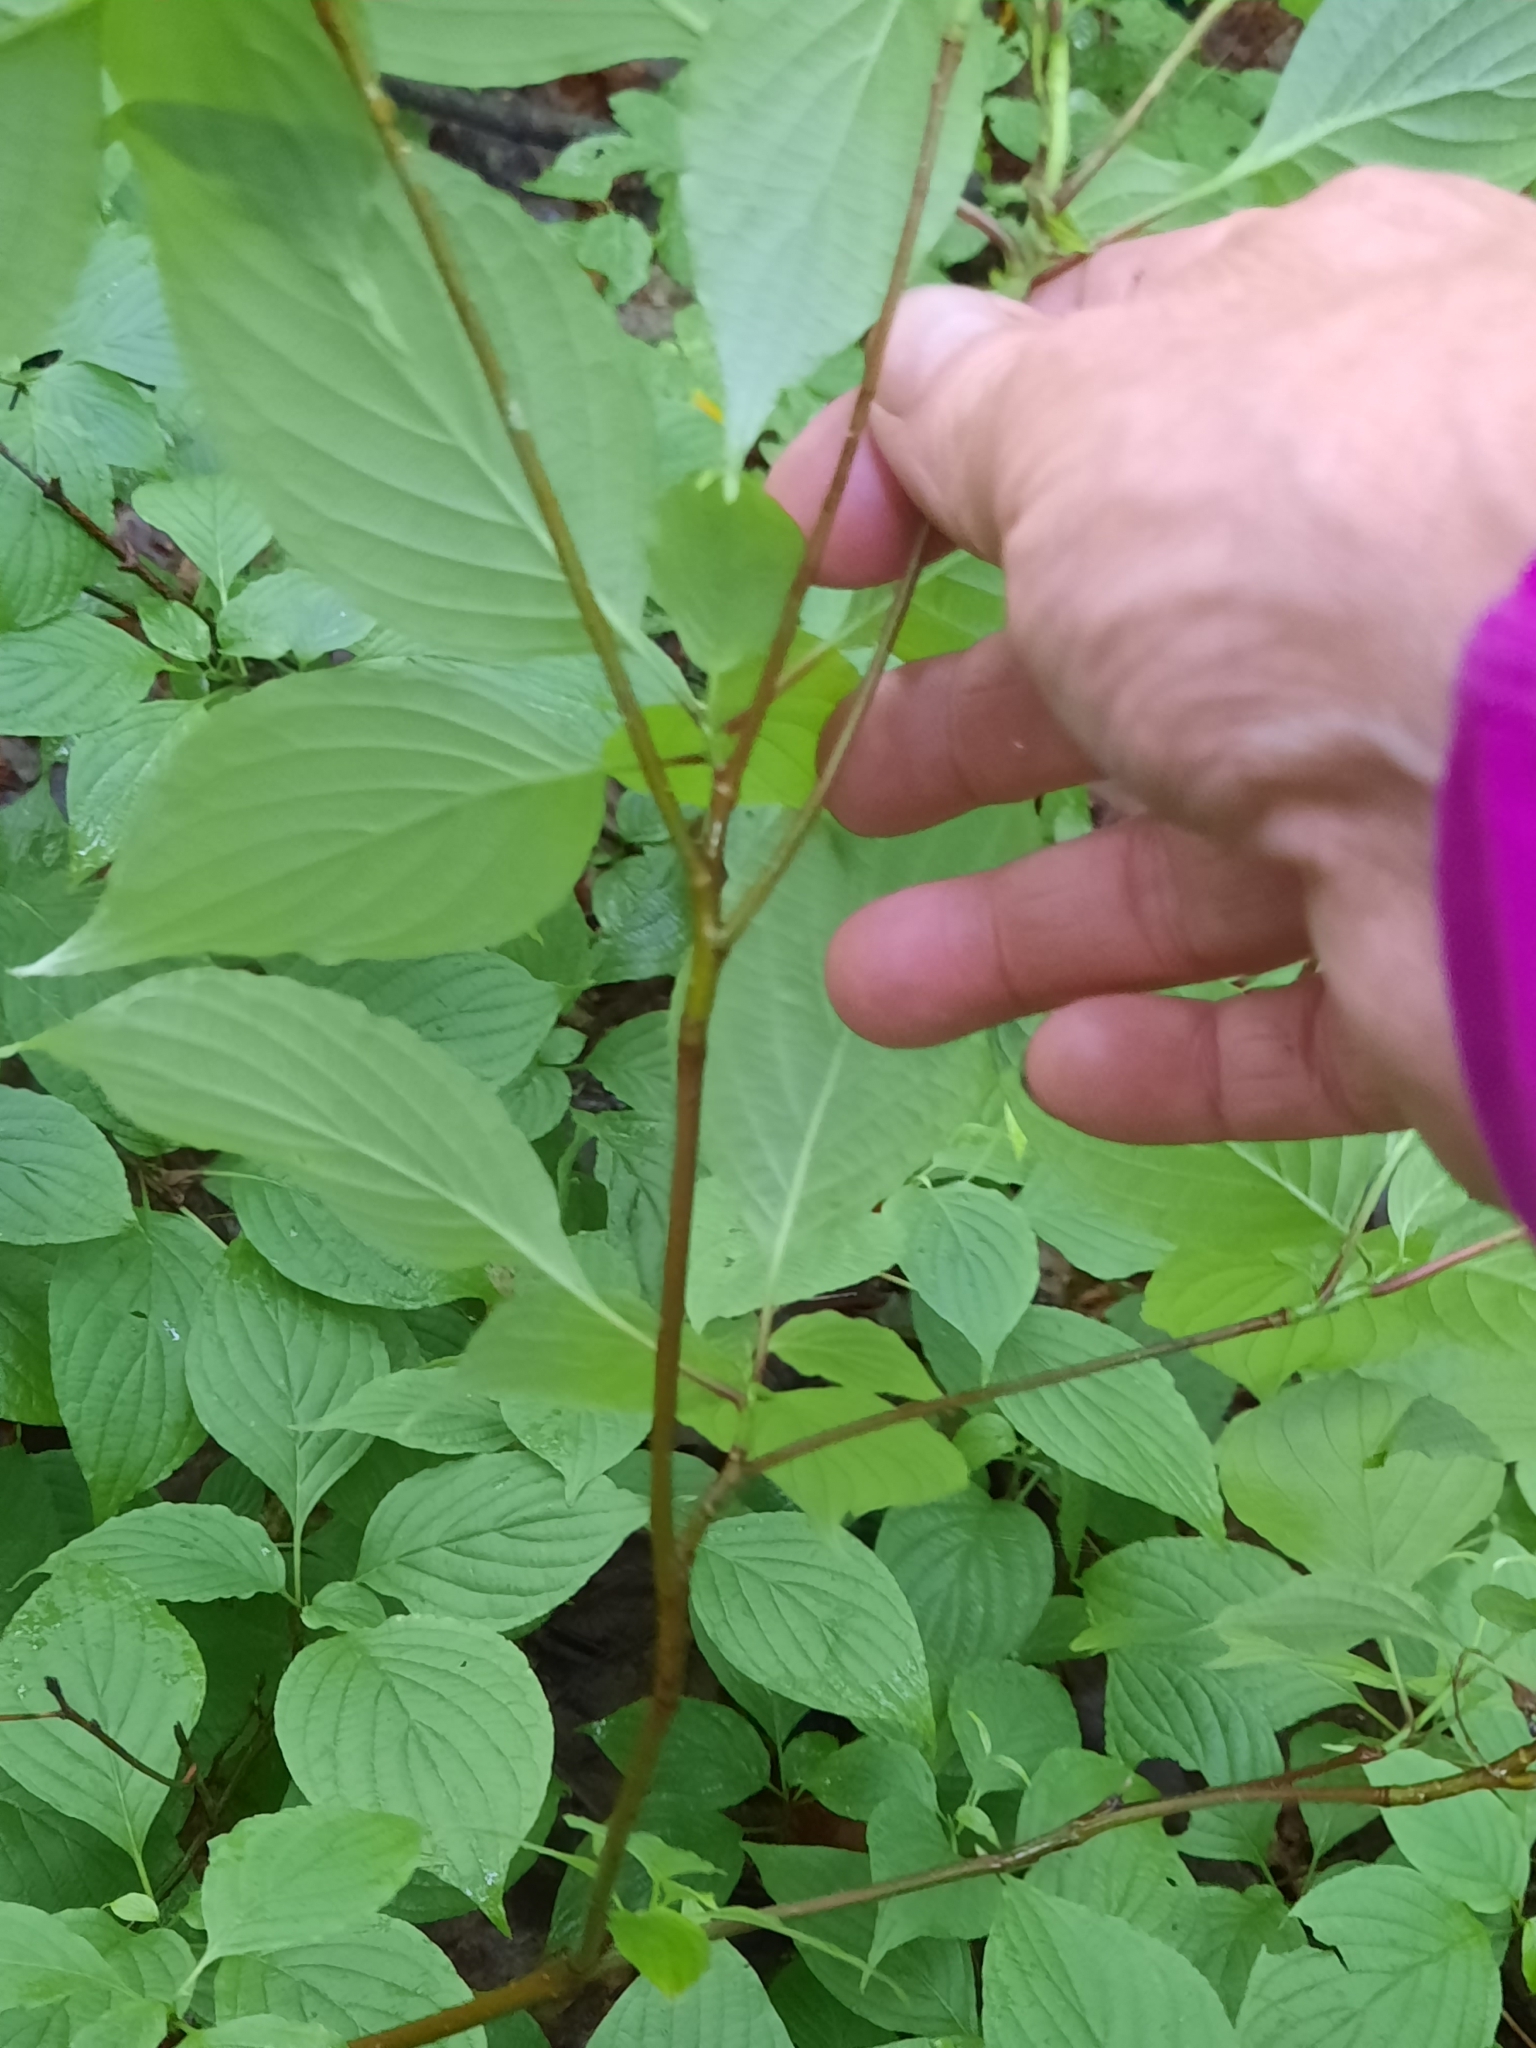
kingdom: Plantae
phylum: Tracheophyta
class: Magnoliopsida
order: Cornales
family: Cornaceae
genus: Cornus
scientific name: Cornus alternifolia
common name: Pagoda dogwood
